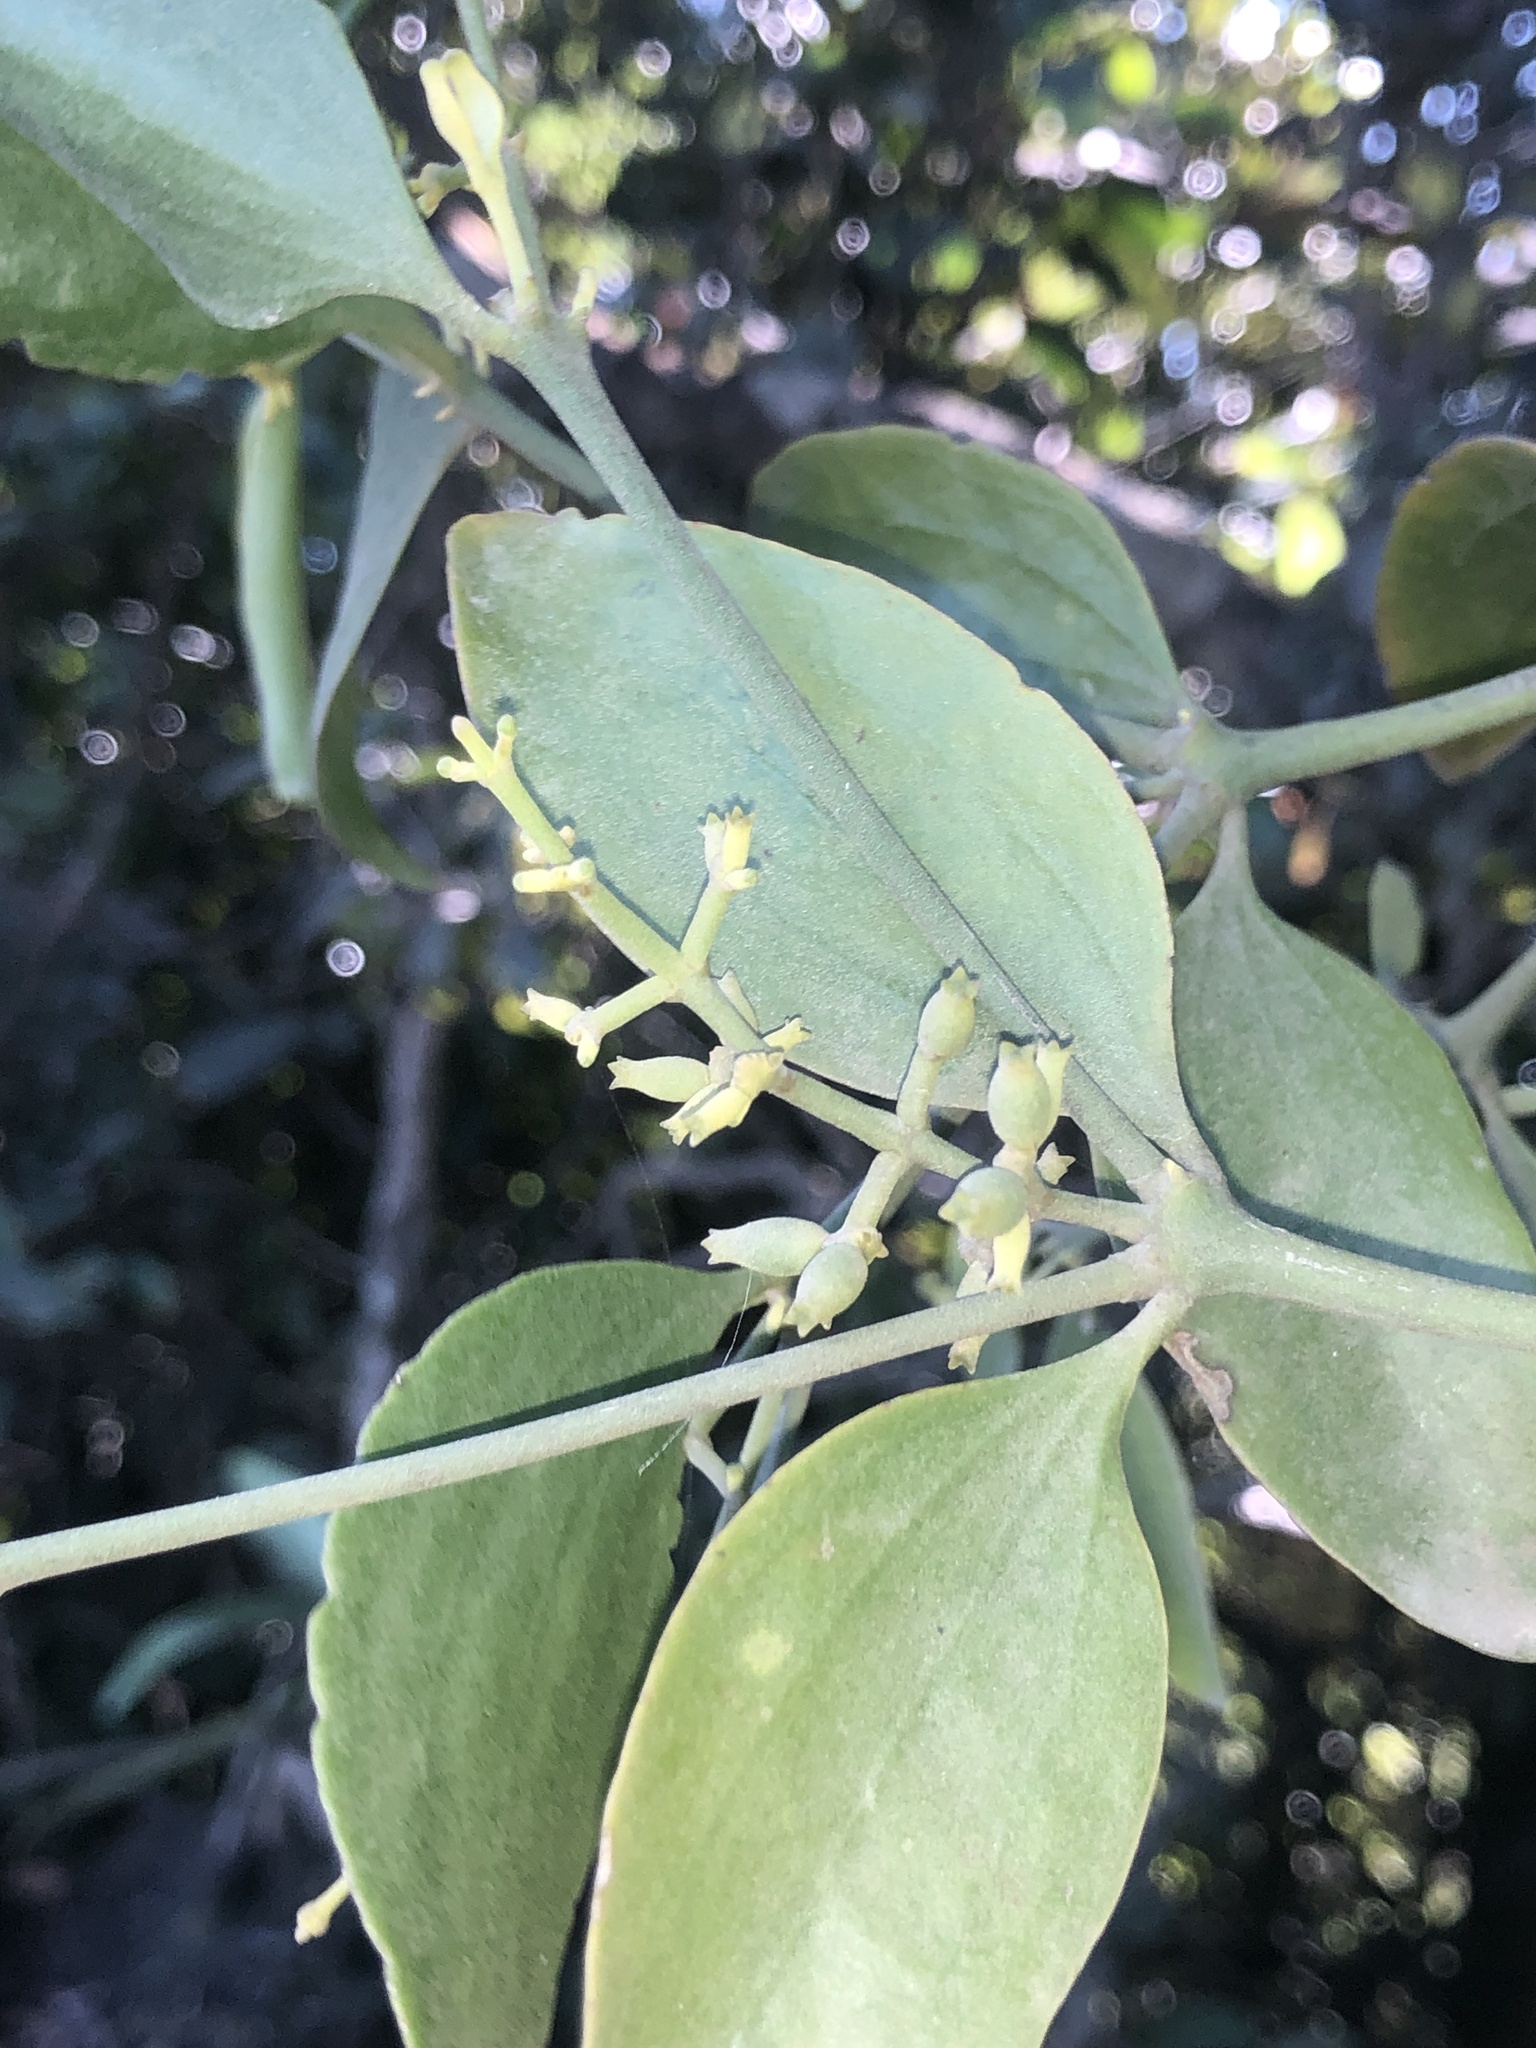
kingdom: Plantae
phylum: Tracheophyta
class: Magnoliopsida
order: Santalales
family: Viscaceae
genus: Notothixos
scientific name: Notothixos cornifolius
